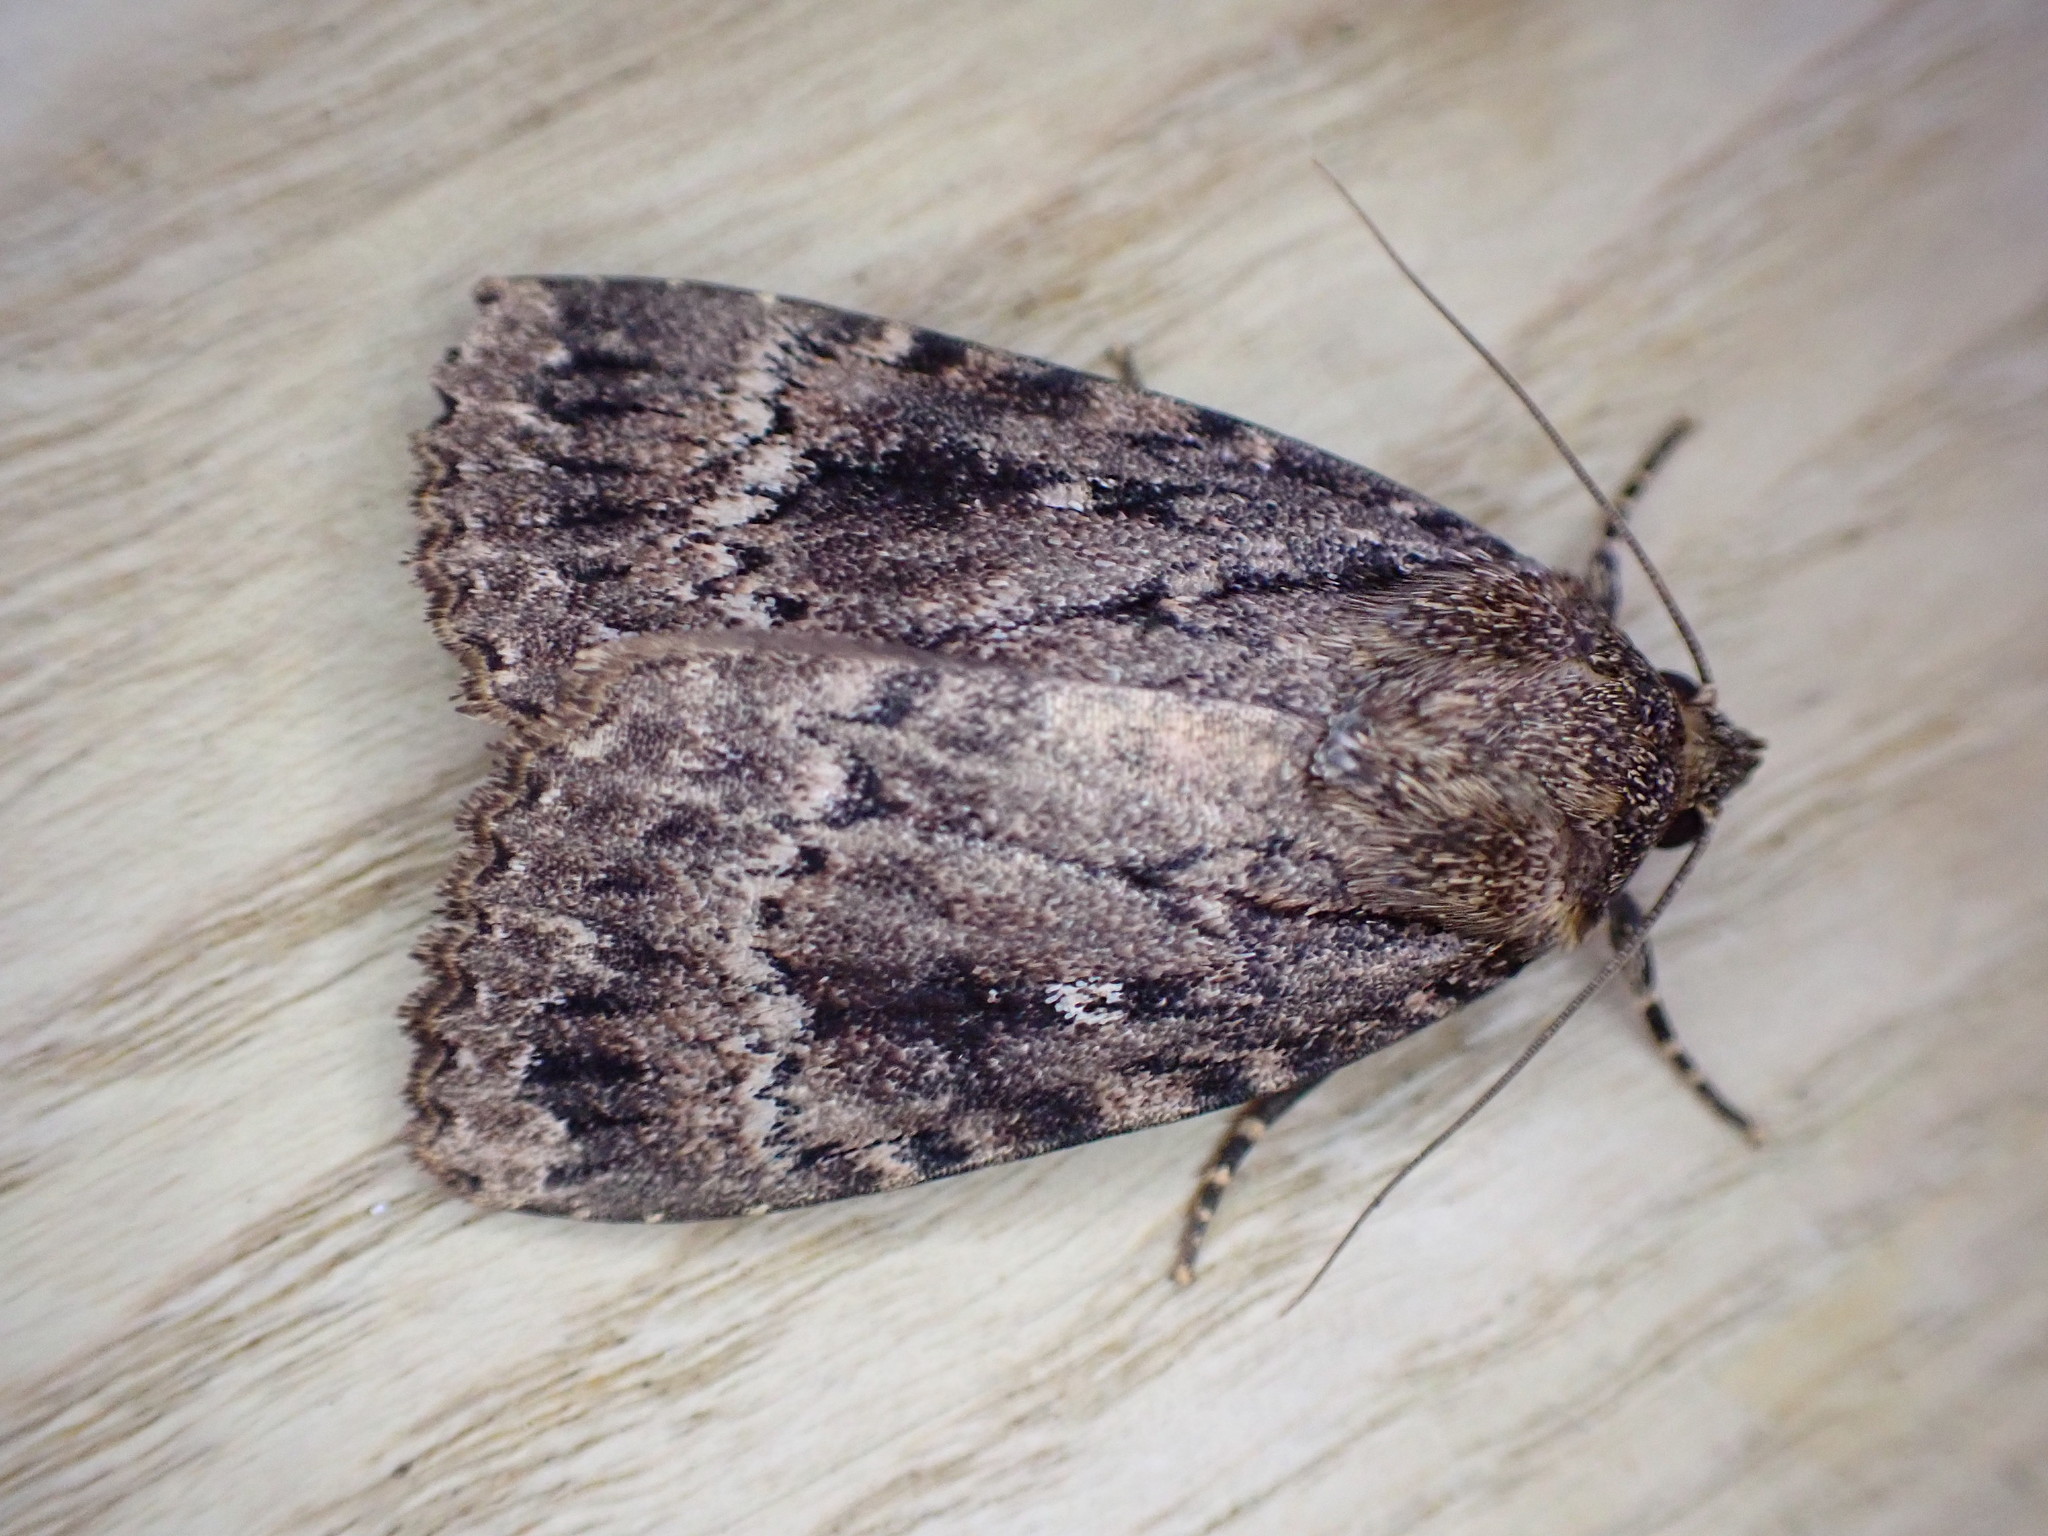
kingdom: Animalia
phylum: Arthropoda
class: Insecta
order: Lepidoptera
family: Noctuidae
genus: Amphipyra
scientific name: Amphipyra pyramidea
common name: Copper underwing
